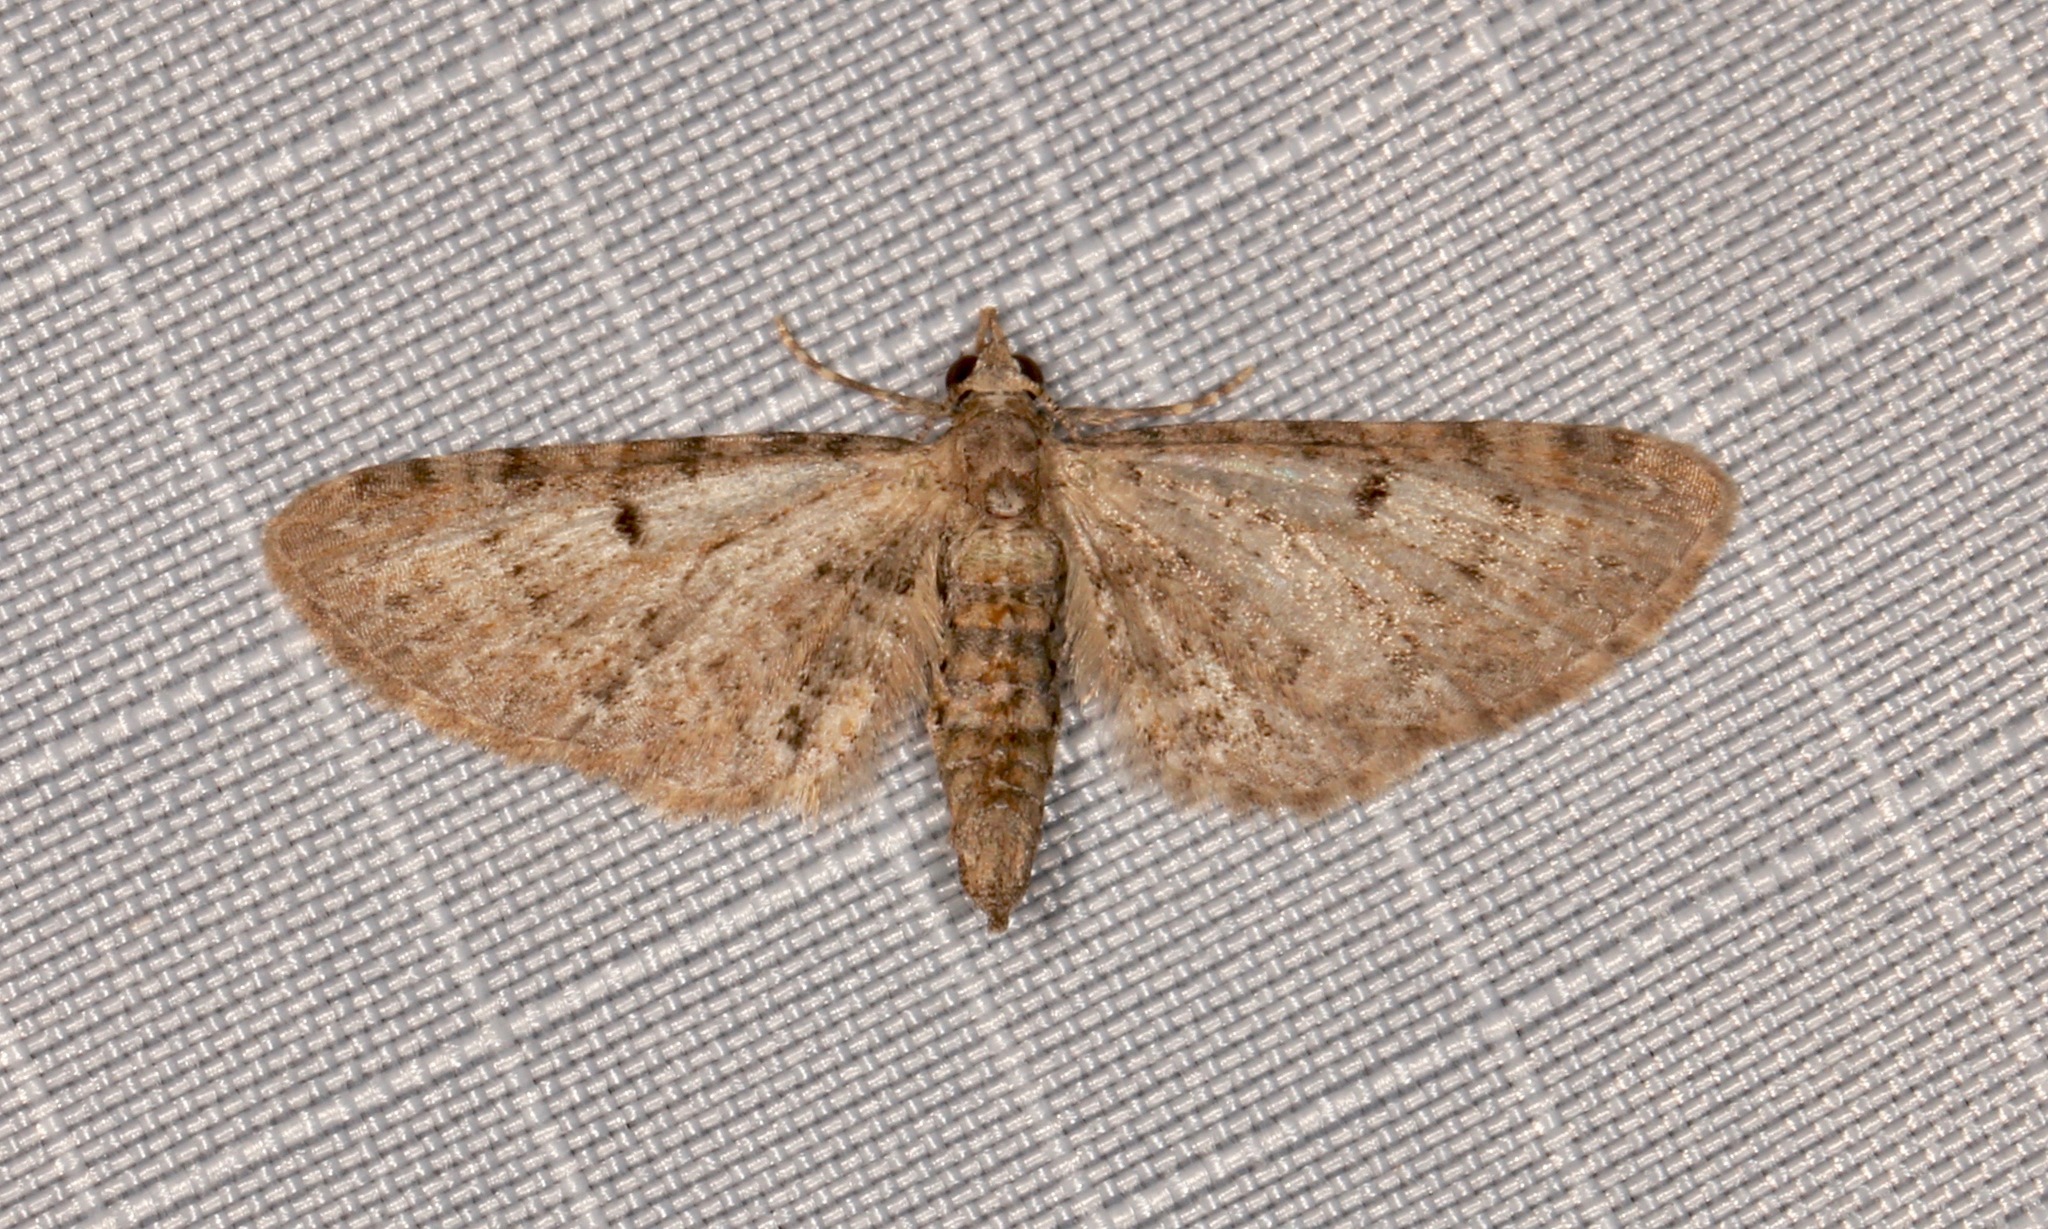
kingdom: Animalia
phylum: Arthropoda
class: Insecta
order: Lepidoptera
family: Geometridae
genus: Eupithecia
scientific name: Eupithecia miserulata
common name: Common eupithecia
